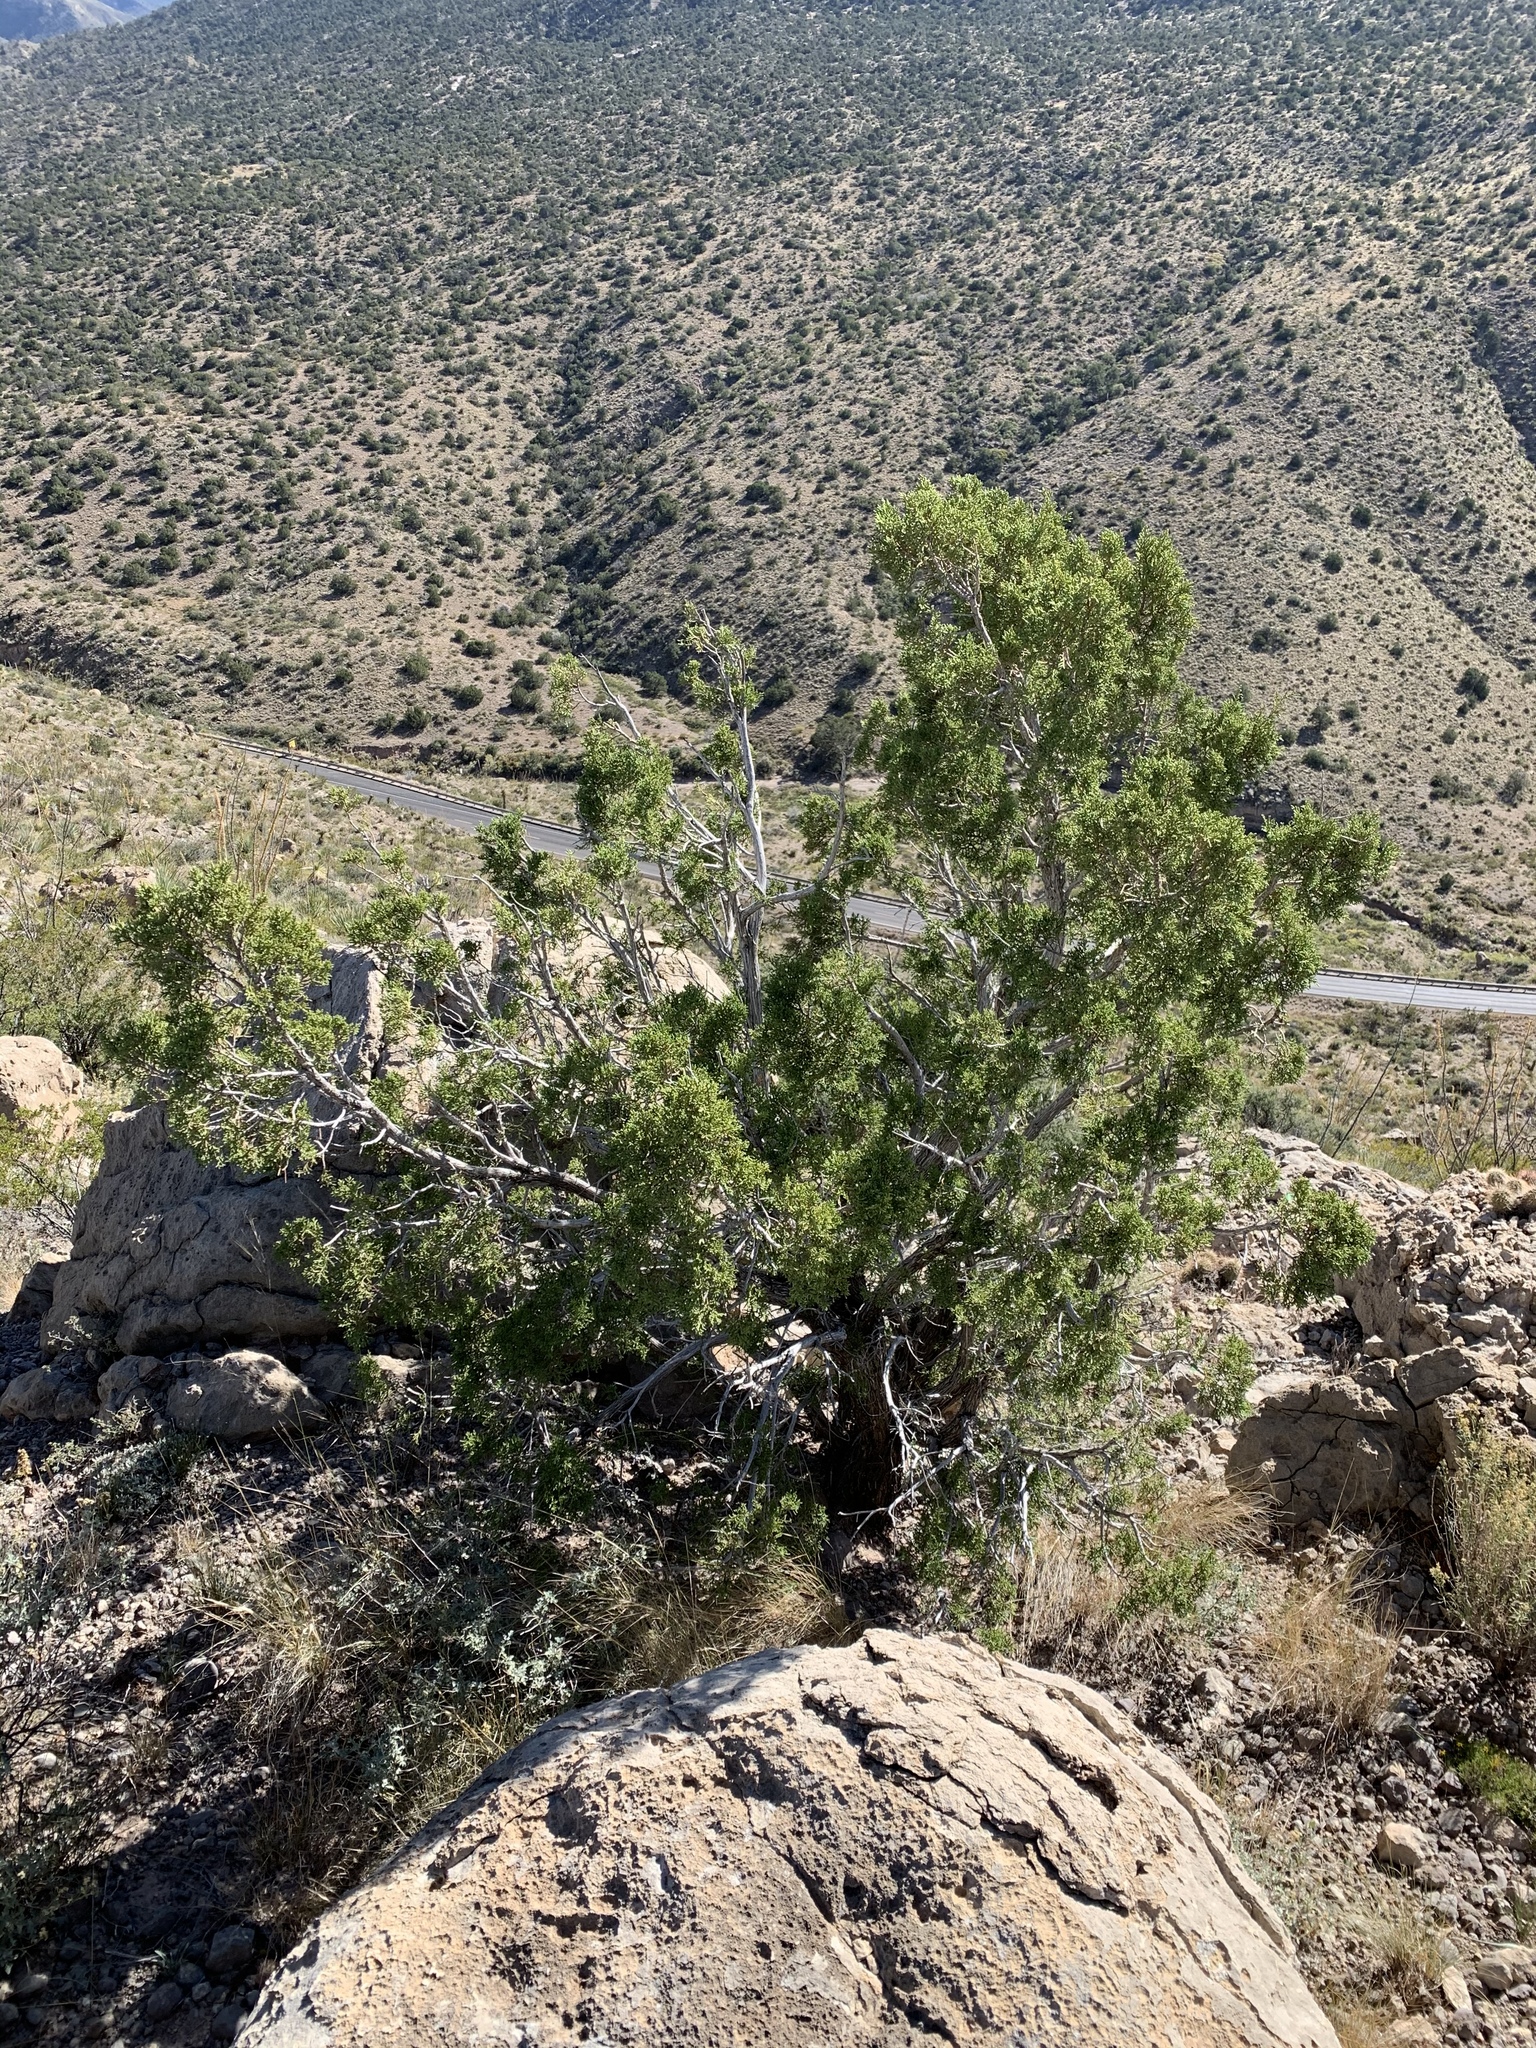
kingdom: Plantae
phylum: Tracheophyta
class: Pinopsida
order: Pinales
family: Cupressaceae
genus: Juniperus
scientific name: Juniperus monosperma
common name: One-seed juniper
